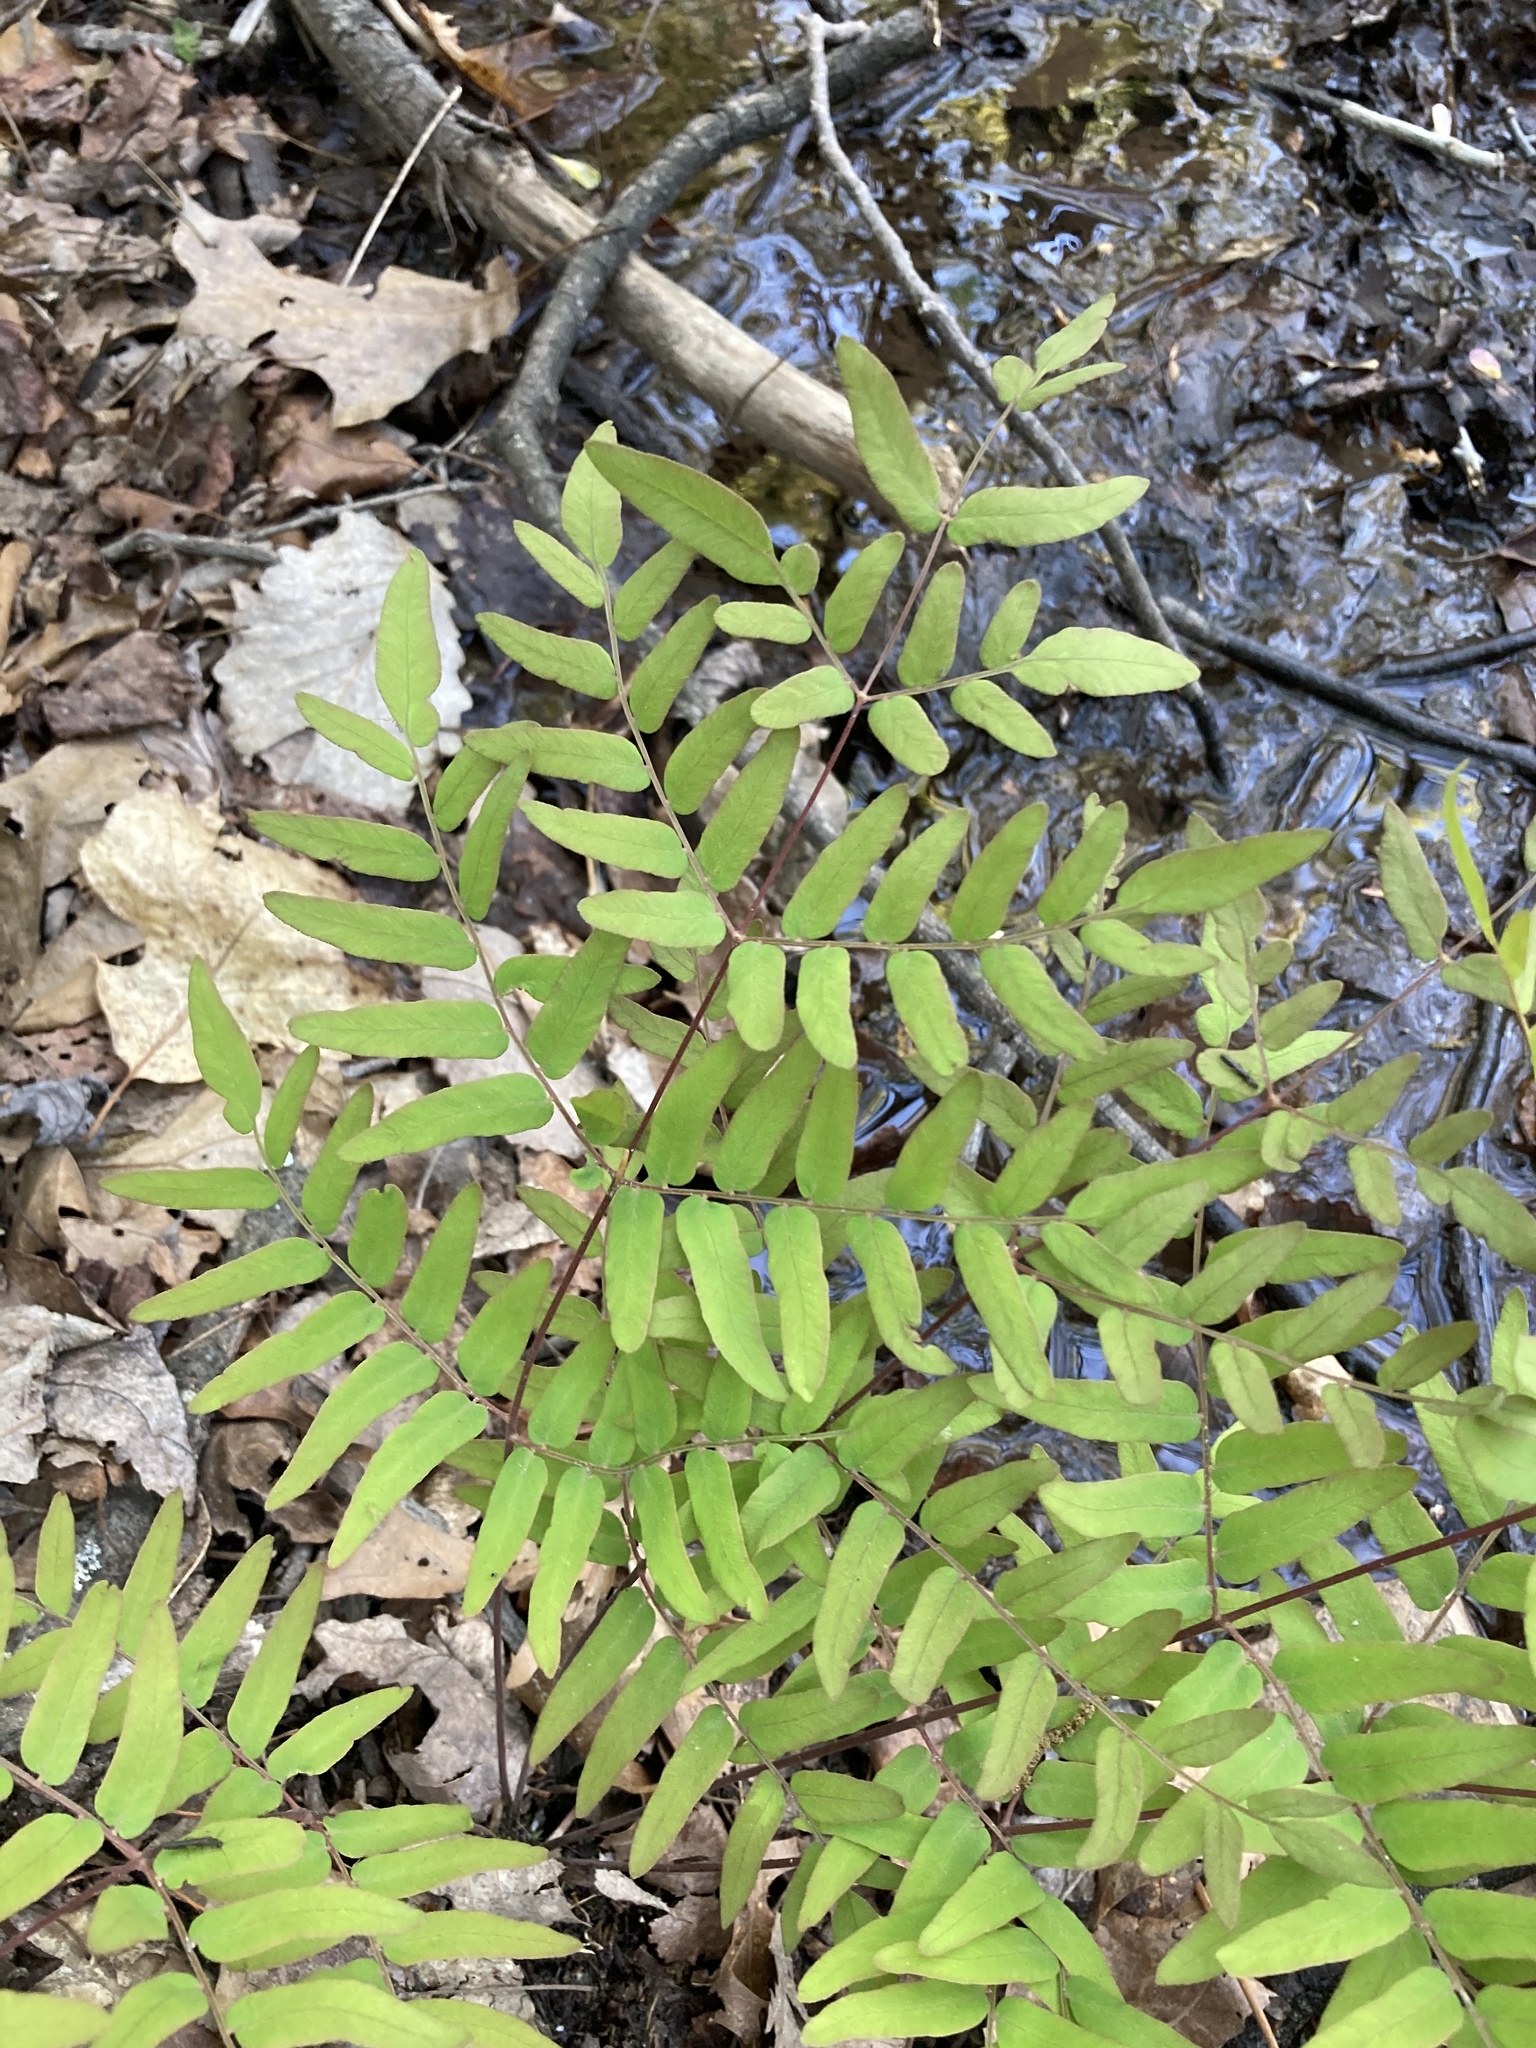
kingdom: Plantae
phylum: Tracheophyta
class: Polypodiopsida
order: Osmundales
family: Osmundaceae
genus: Osmunda
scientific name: Osmunda spectabilis
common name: American royal fern
